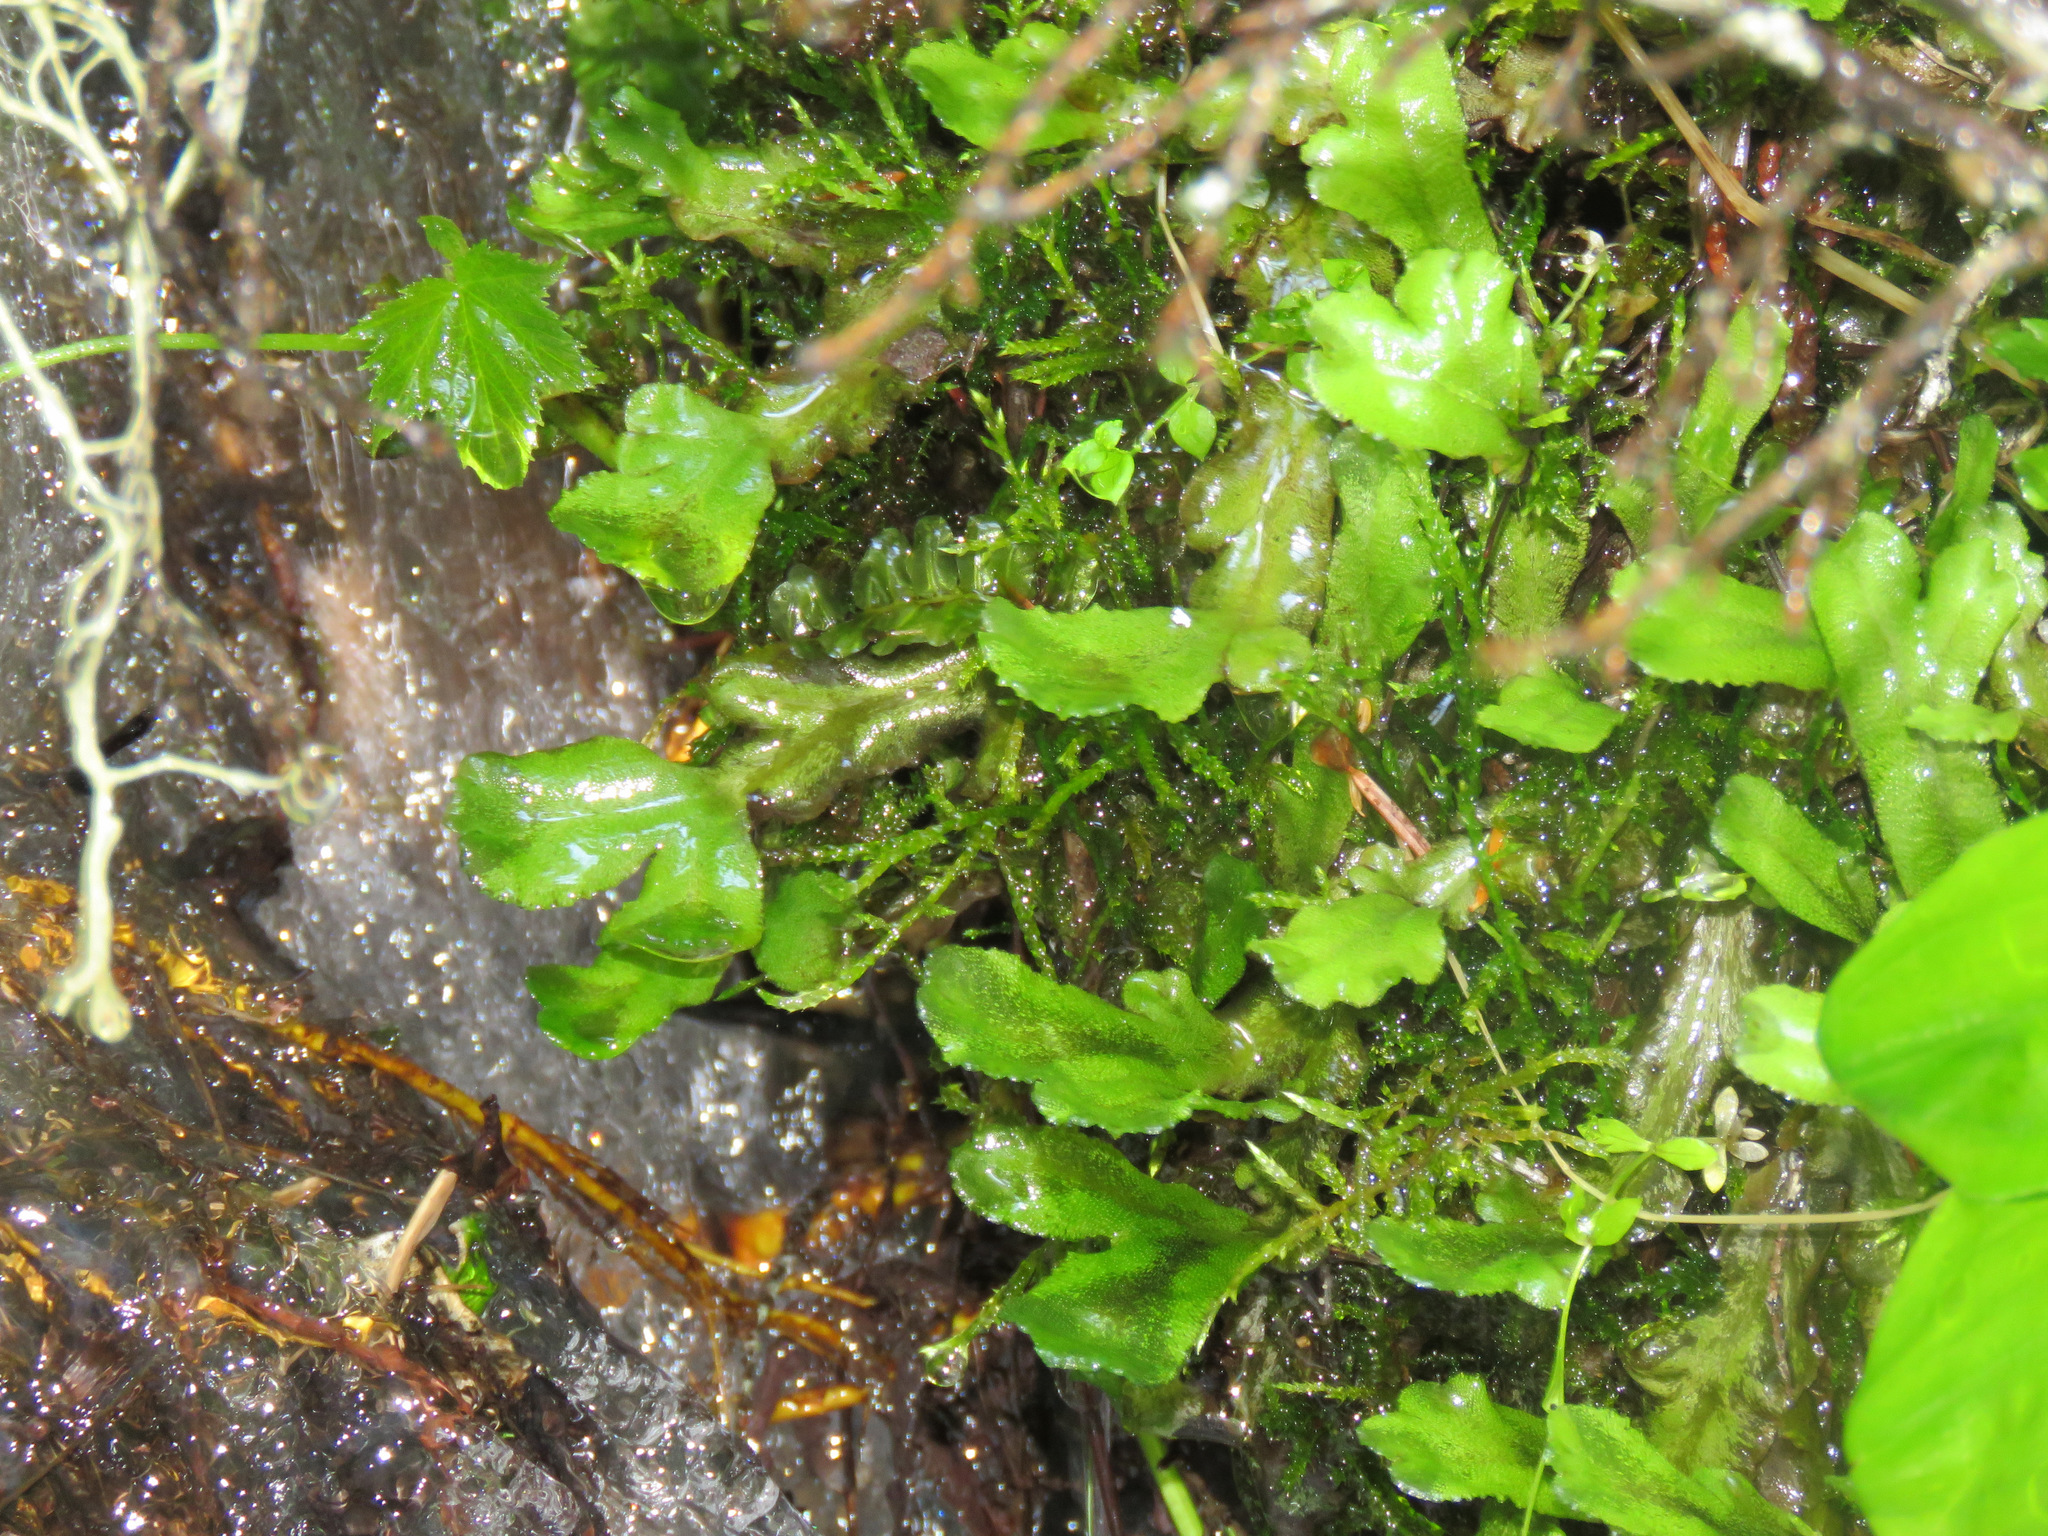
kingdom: Plantae
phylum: Marchantiophyta
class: Marchantiopsida
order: Marchantiales
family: Marchantiaceae
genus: Marchantia
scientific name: Marchantia polymorpha
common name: Common liverwort
